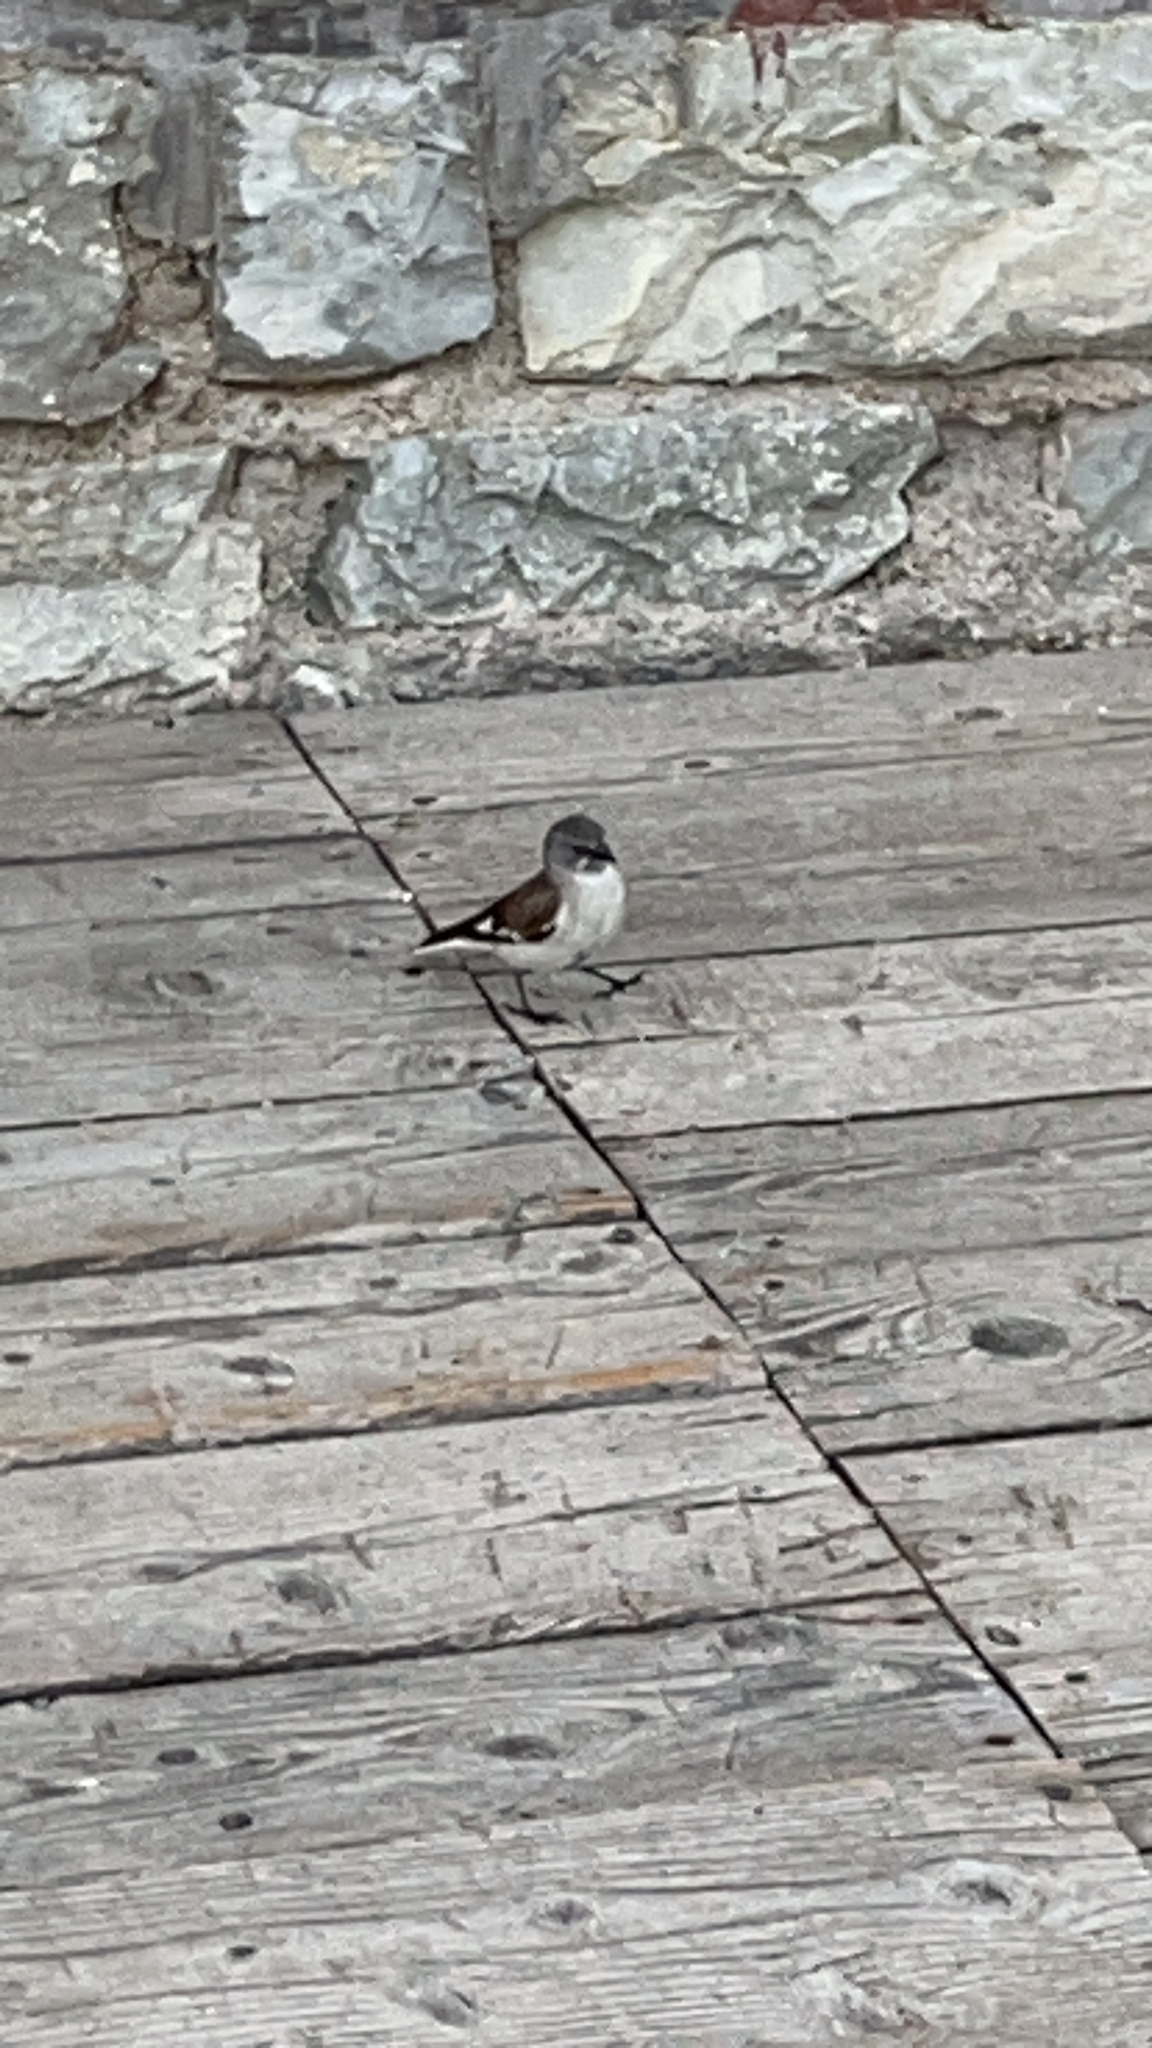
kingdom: Animalia
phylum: Chordata
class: Aves
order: Passeriformes
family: Passeridae
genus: Montifringilla
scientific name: Montifringilla nivalis
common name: White-winged snowfinch
